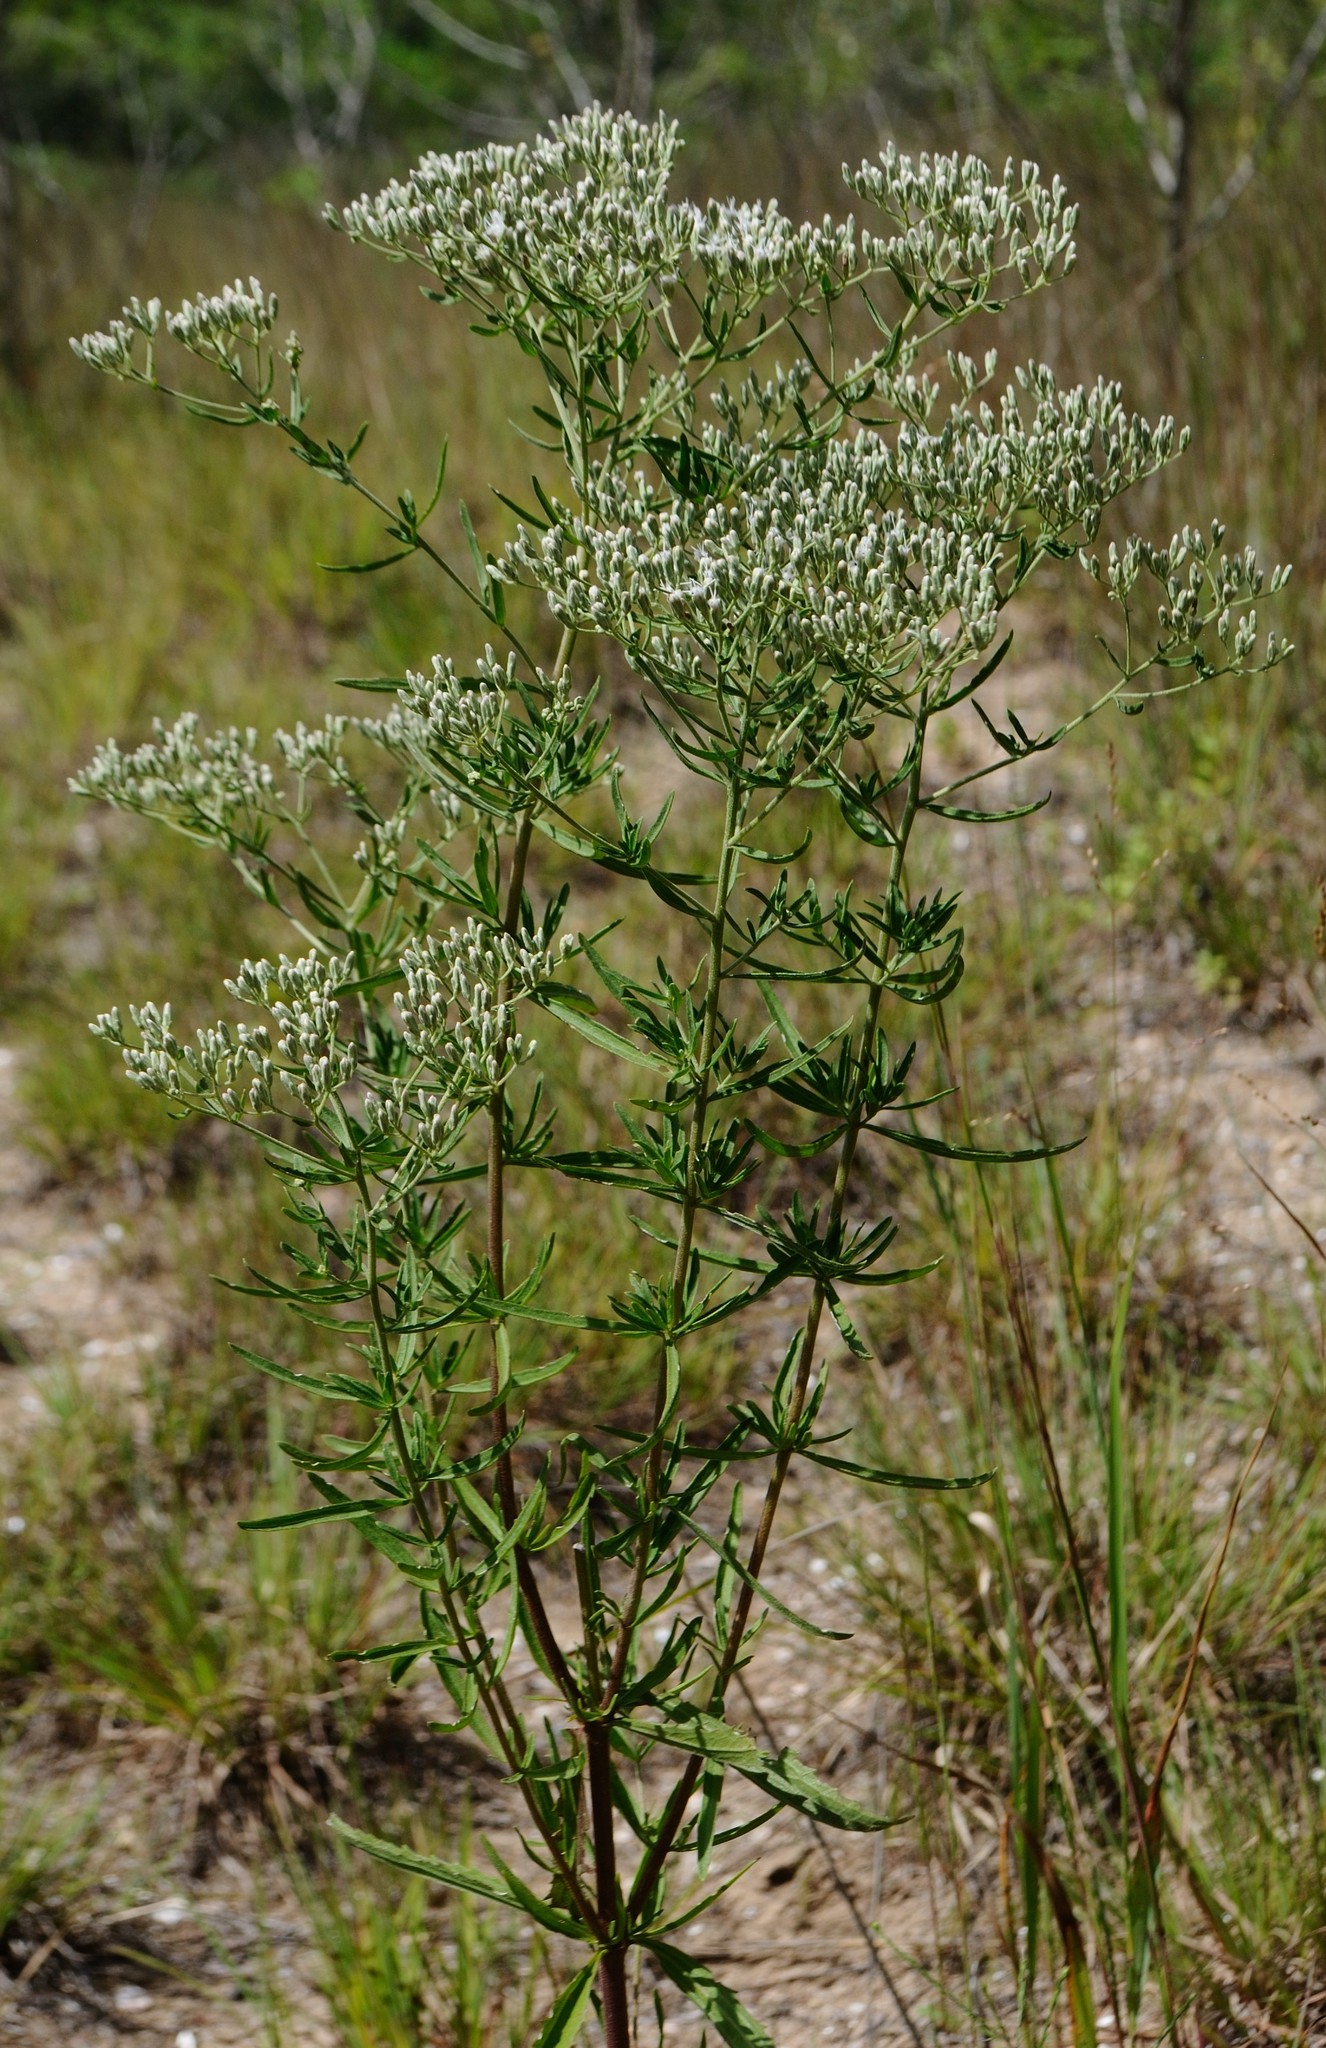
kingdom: Plantae
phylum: Tracheophyta
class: Magnoliopsida
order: Asterales
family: Asteraceae
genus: Eupatorium
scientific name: Eupatorium torreyanum
